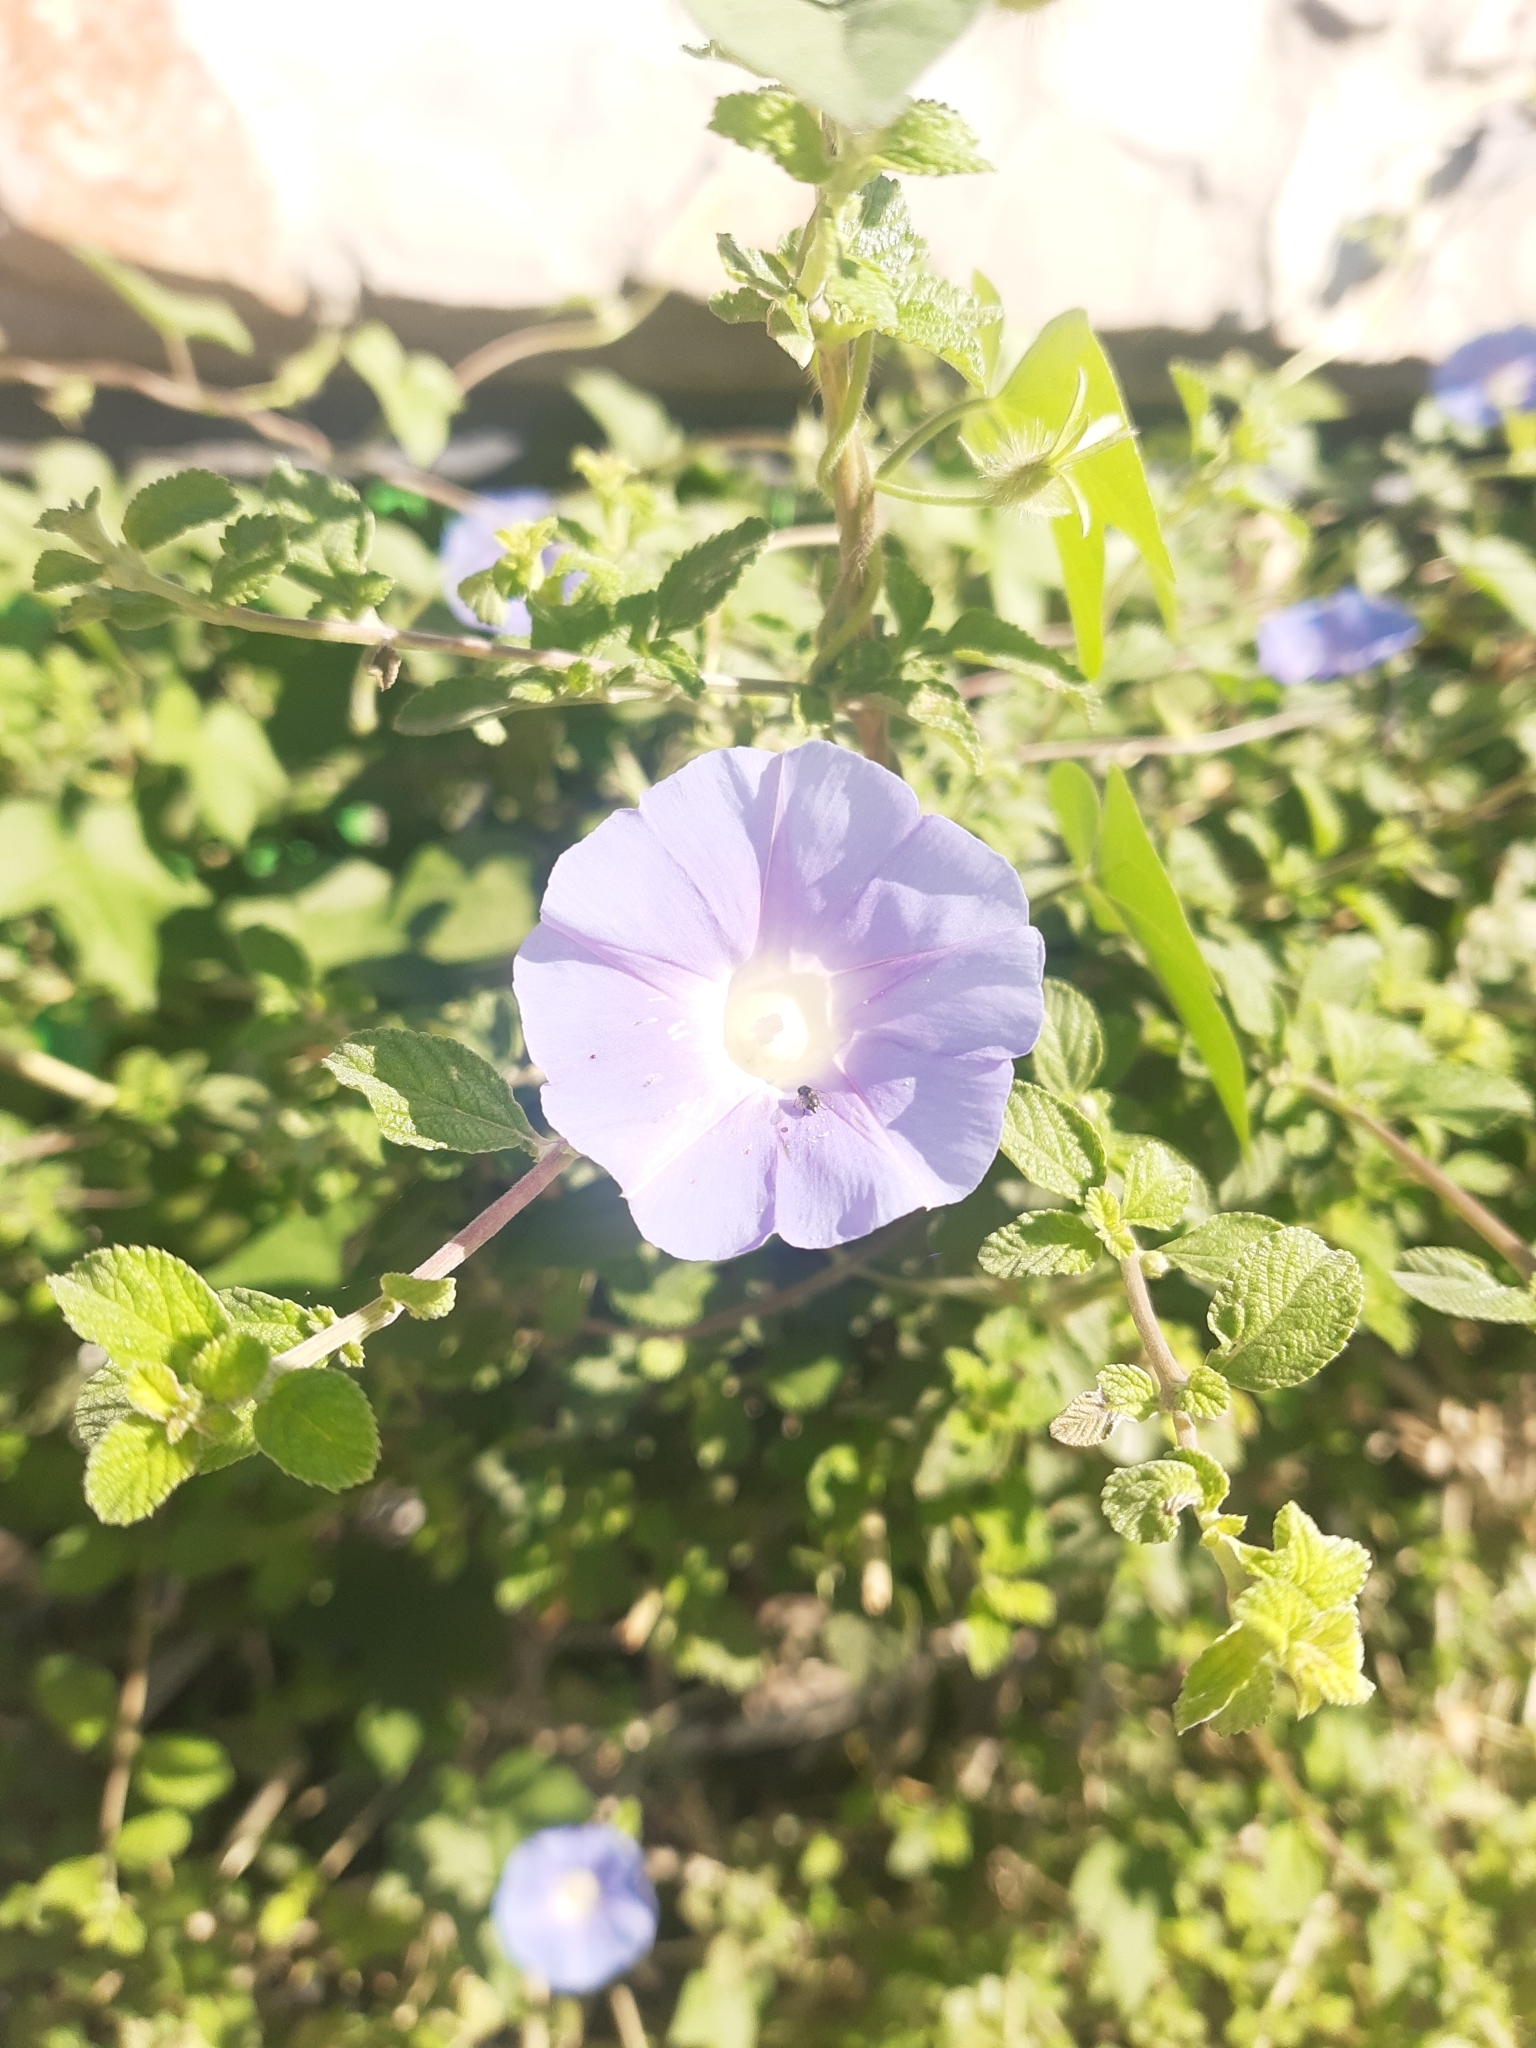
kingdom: Plantae
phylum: Tracheophyta
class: Magnoliopsida
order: Solanales
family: Convolvulaceae
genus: Ipomoea
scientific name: Ipomoea hederacea
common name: Ivy-leaved morning-glory
